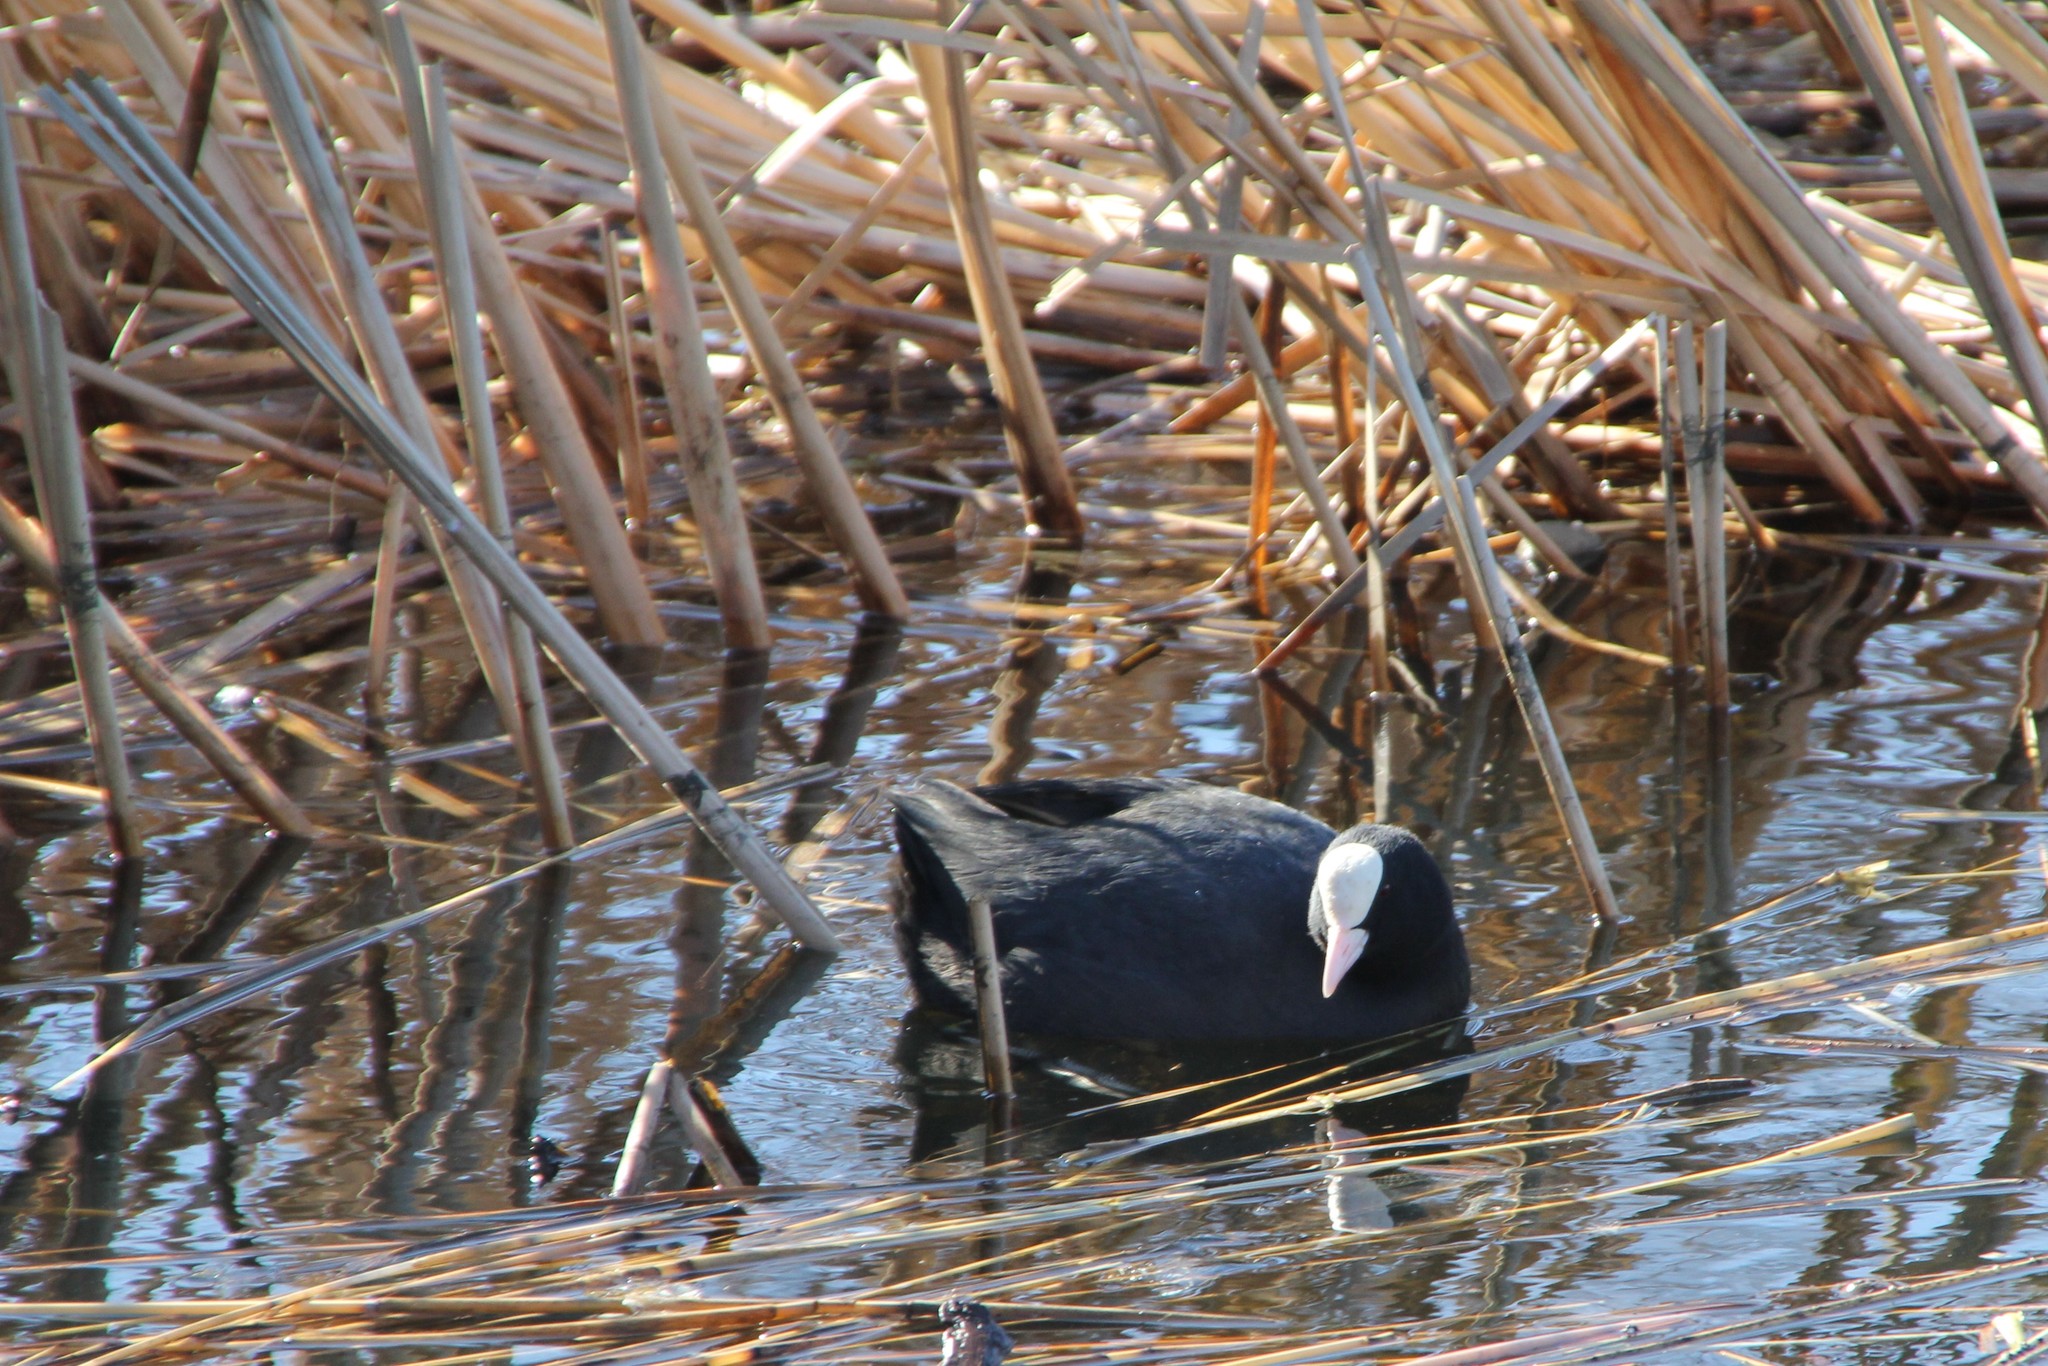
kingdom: Animalia
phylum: Chordata
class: Aves
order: Gruiformes
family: Rallidae
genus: Fulica
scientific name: Fulica atra
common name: Eurasian coot
